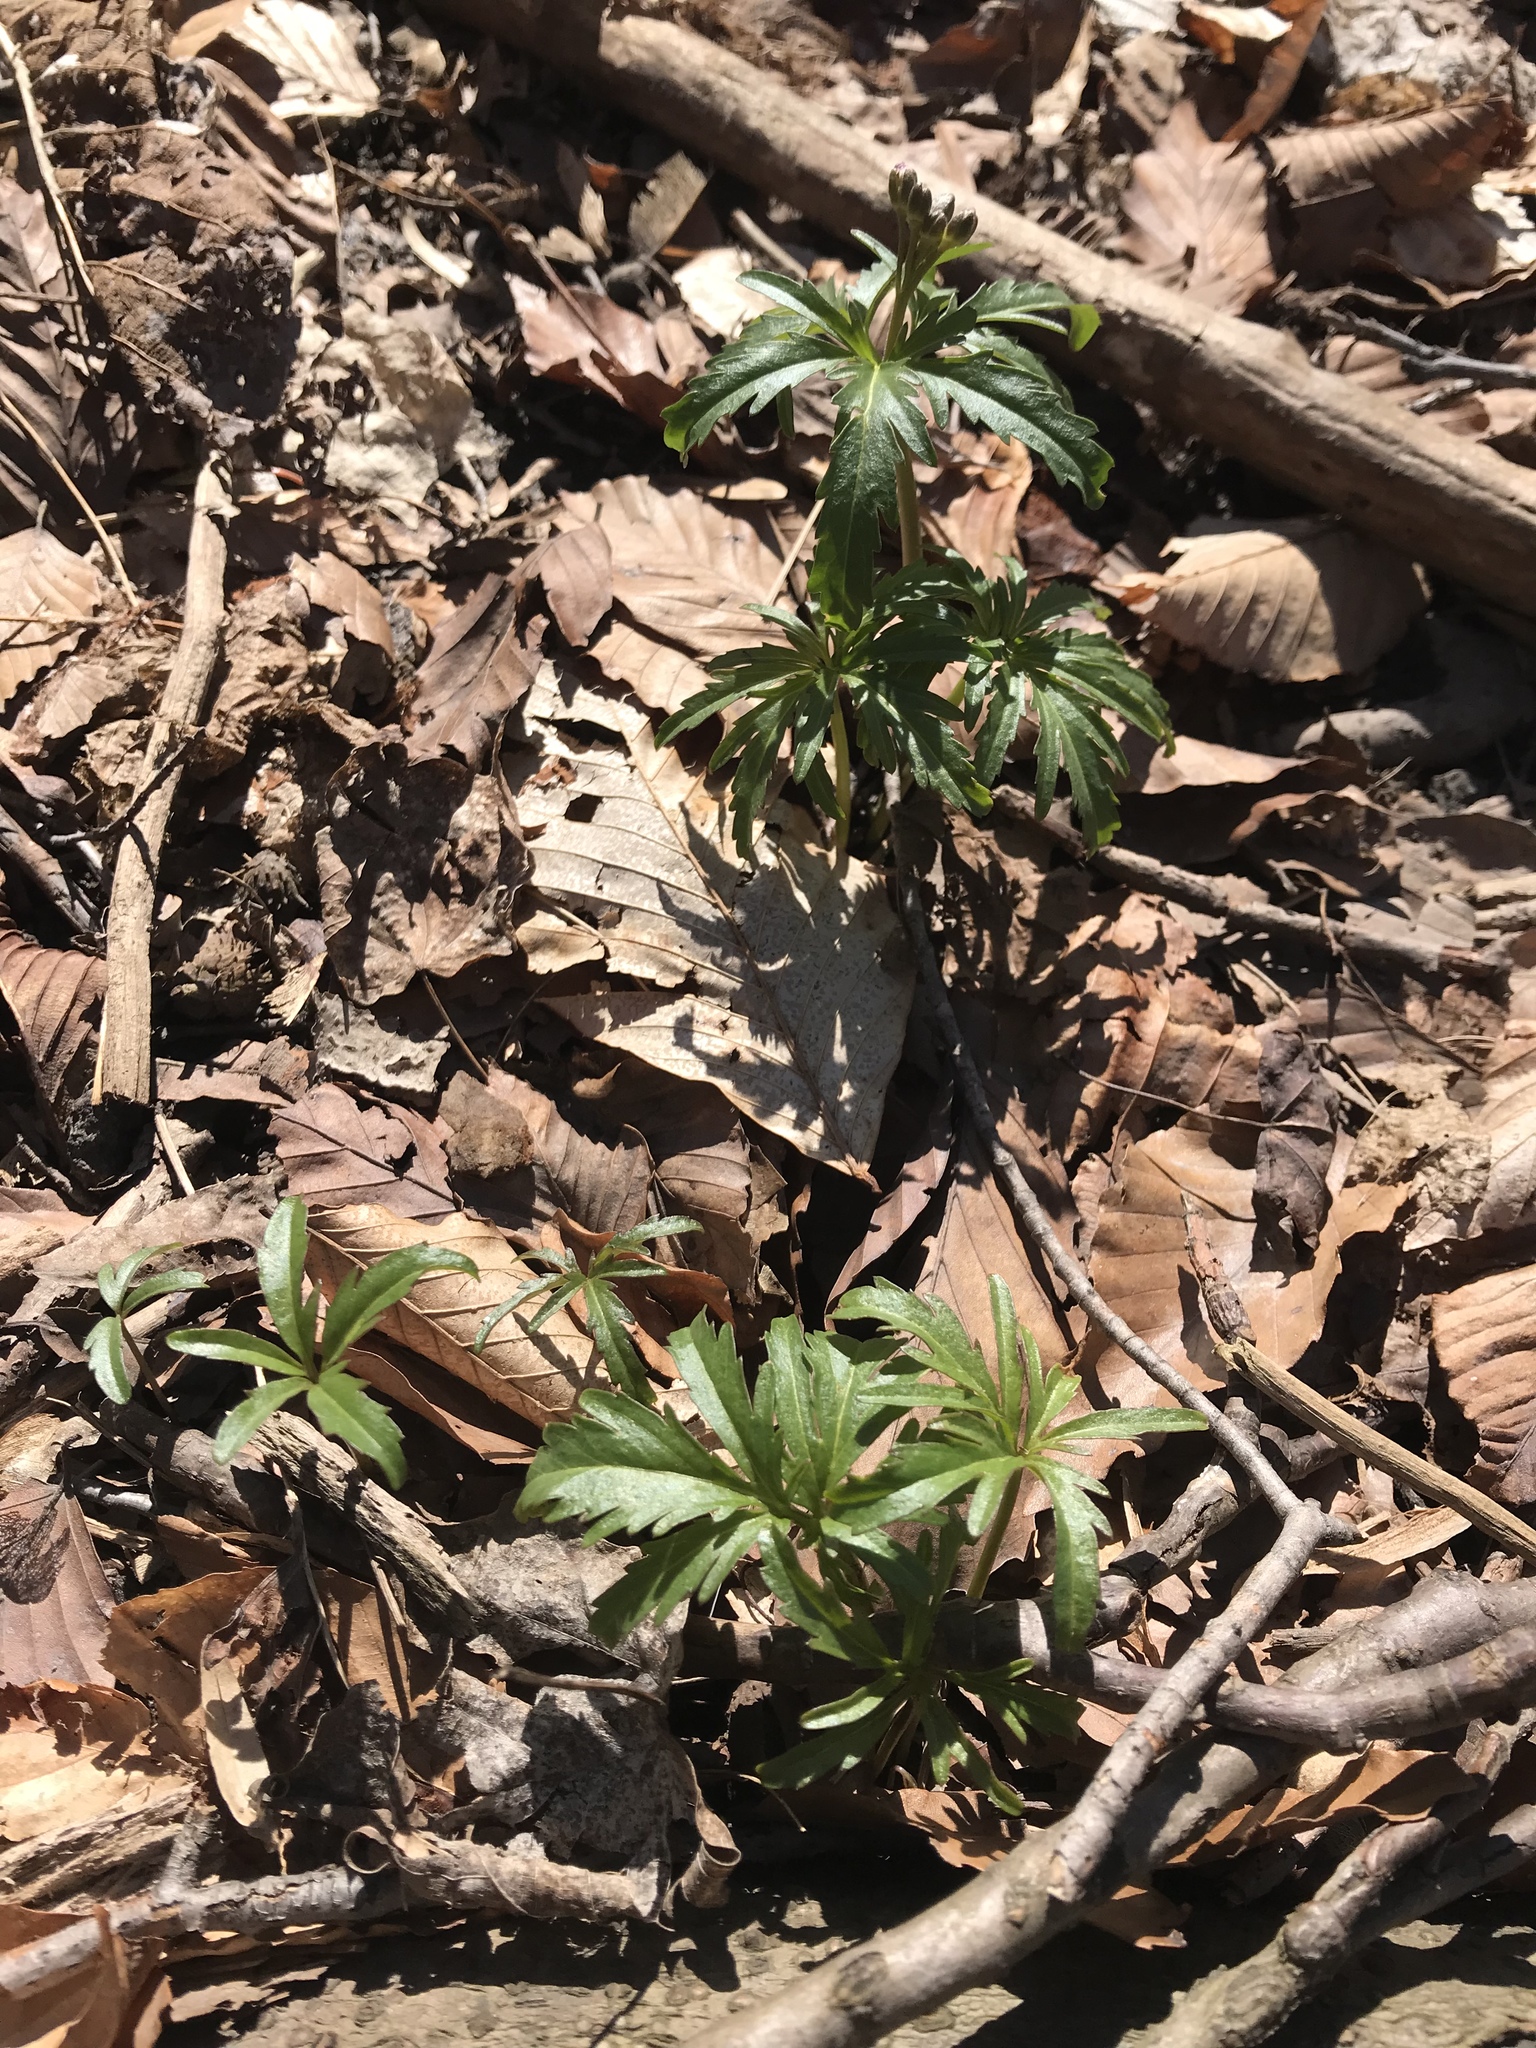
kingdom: Plantae
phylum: Tracheophyta
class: Magnoliopsida
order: Brassicales
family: Brassicaceae
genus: Cardamine
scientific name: Cardamine concatenata
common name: Cut-leaf toothcup
